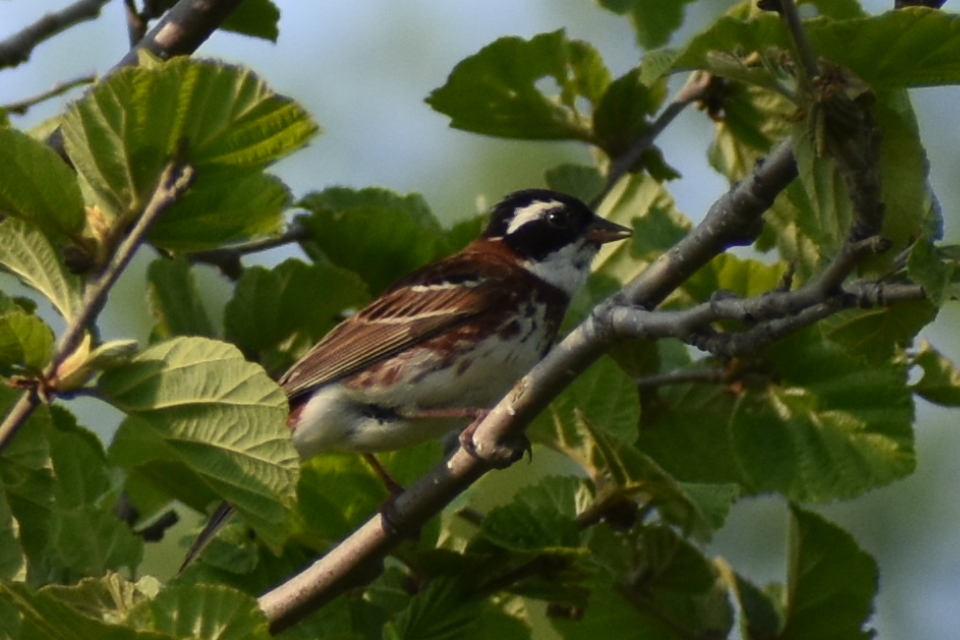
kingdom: Animalia
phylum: Chordata
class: Aves
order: Passeriformes
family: Emberizidae
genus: Emberiza
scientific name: Emberiza rustica
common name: Rustic bunting
